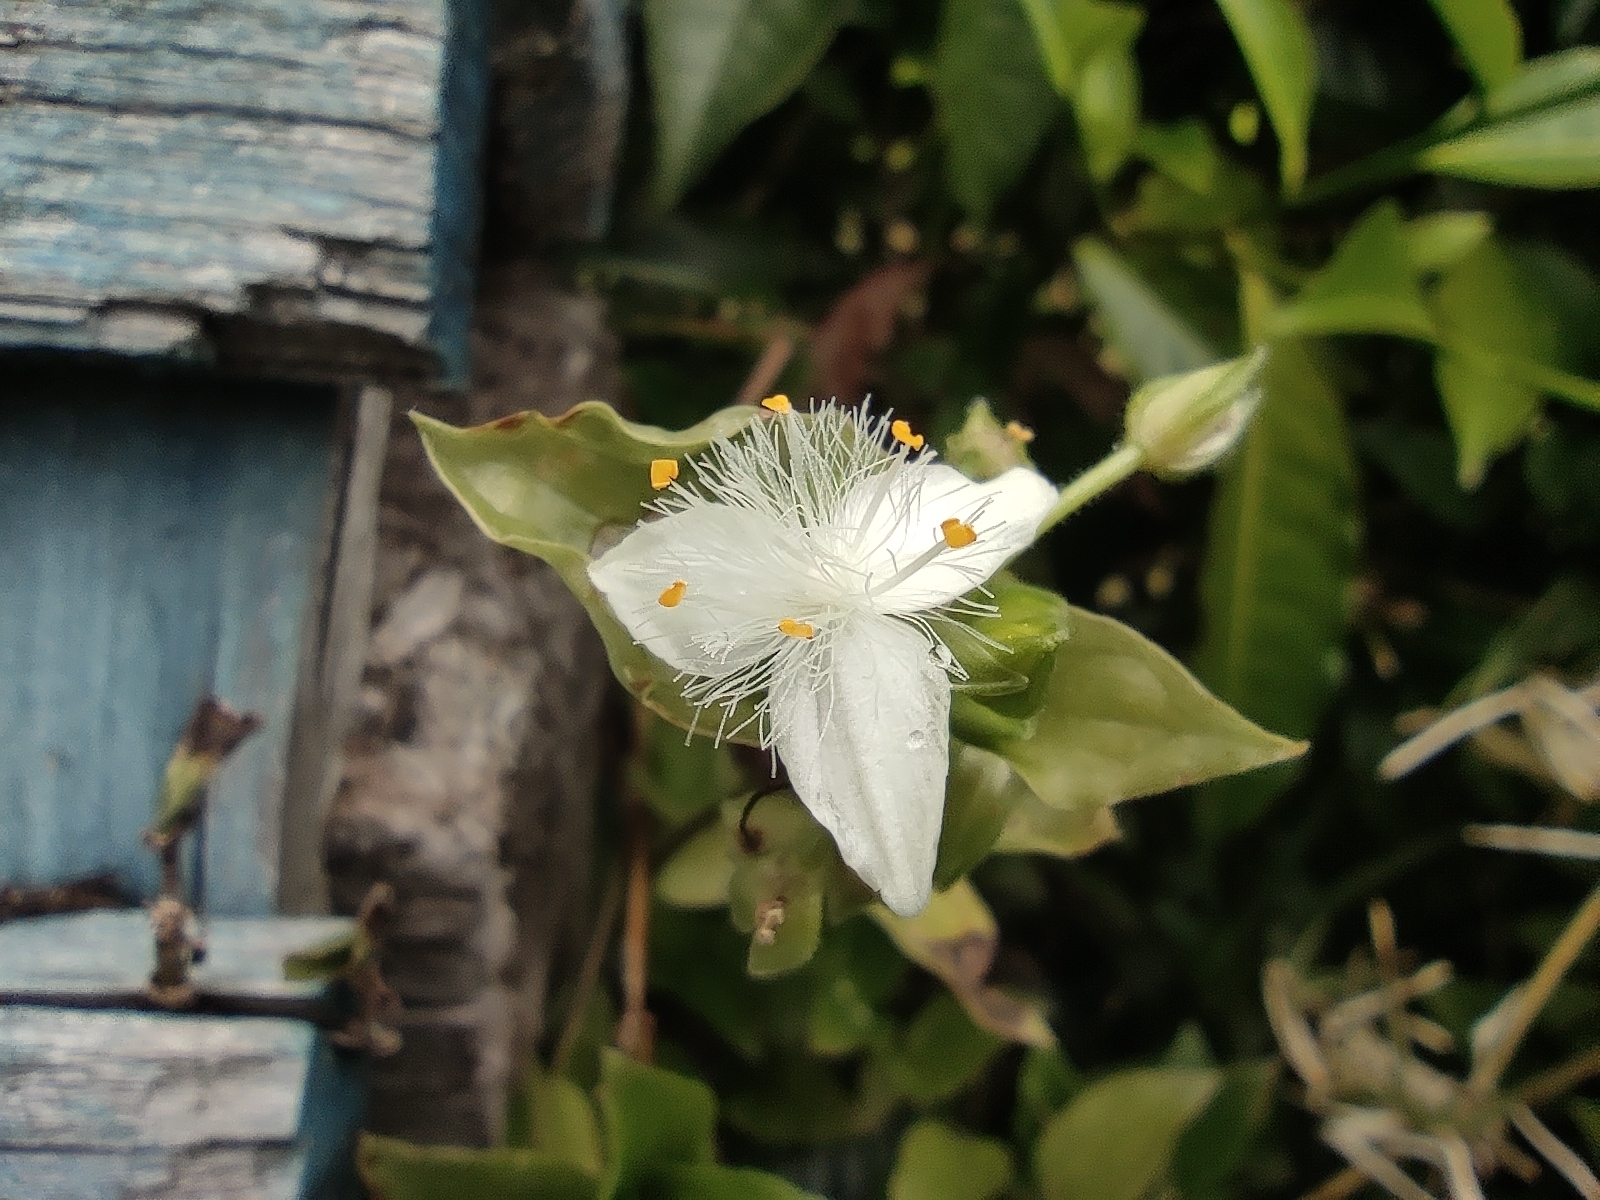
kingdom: Plantae
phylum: Tracheophyta
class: Liliopsida
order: Commelinales
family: Commelinaceae
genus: Tradescantia
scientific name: Tradescantia fluminensis
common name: Wandering-jew
